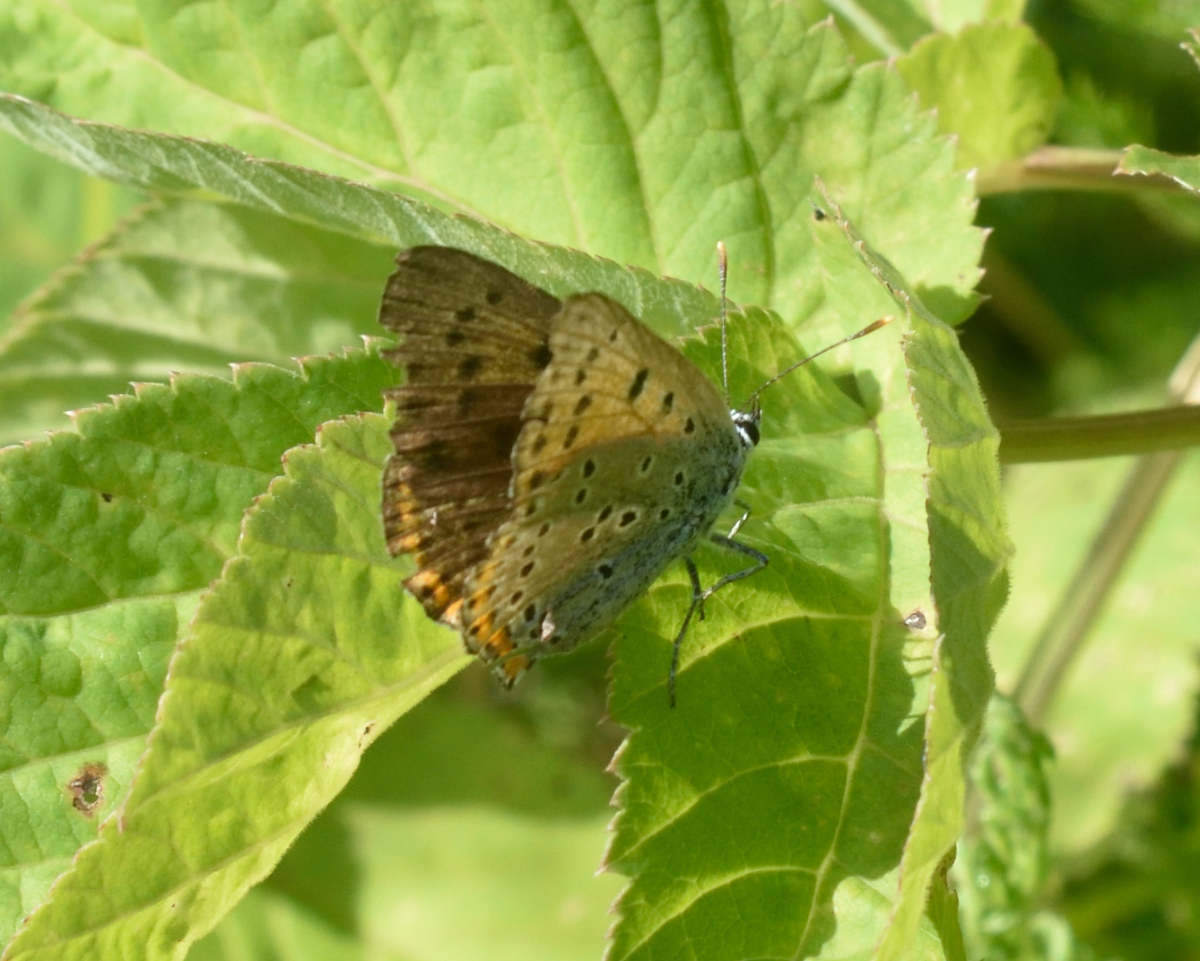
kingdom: Animalia
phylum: Arthropoda
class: Insecta
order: Lepidoptera
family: Lycaenidae
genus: Lycaena
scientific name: Lycaena alciphron
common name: Purple-shot copper
